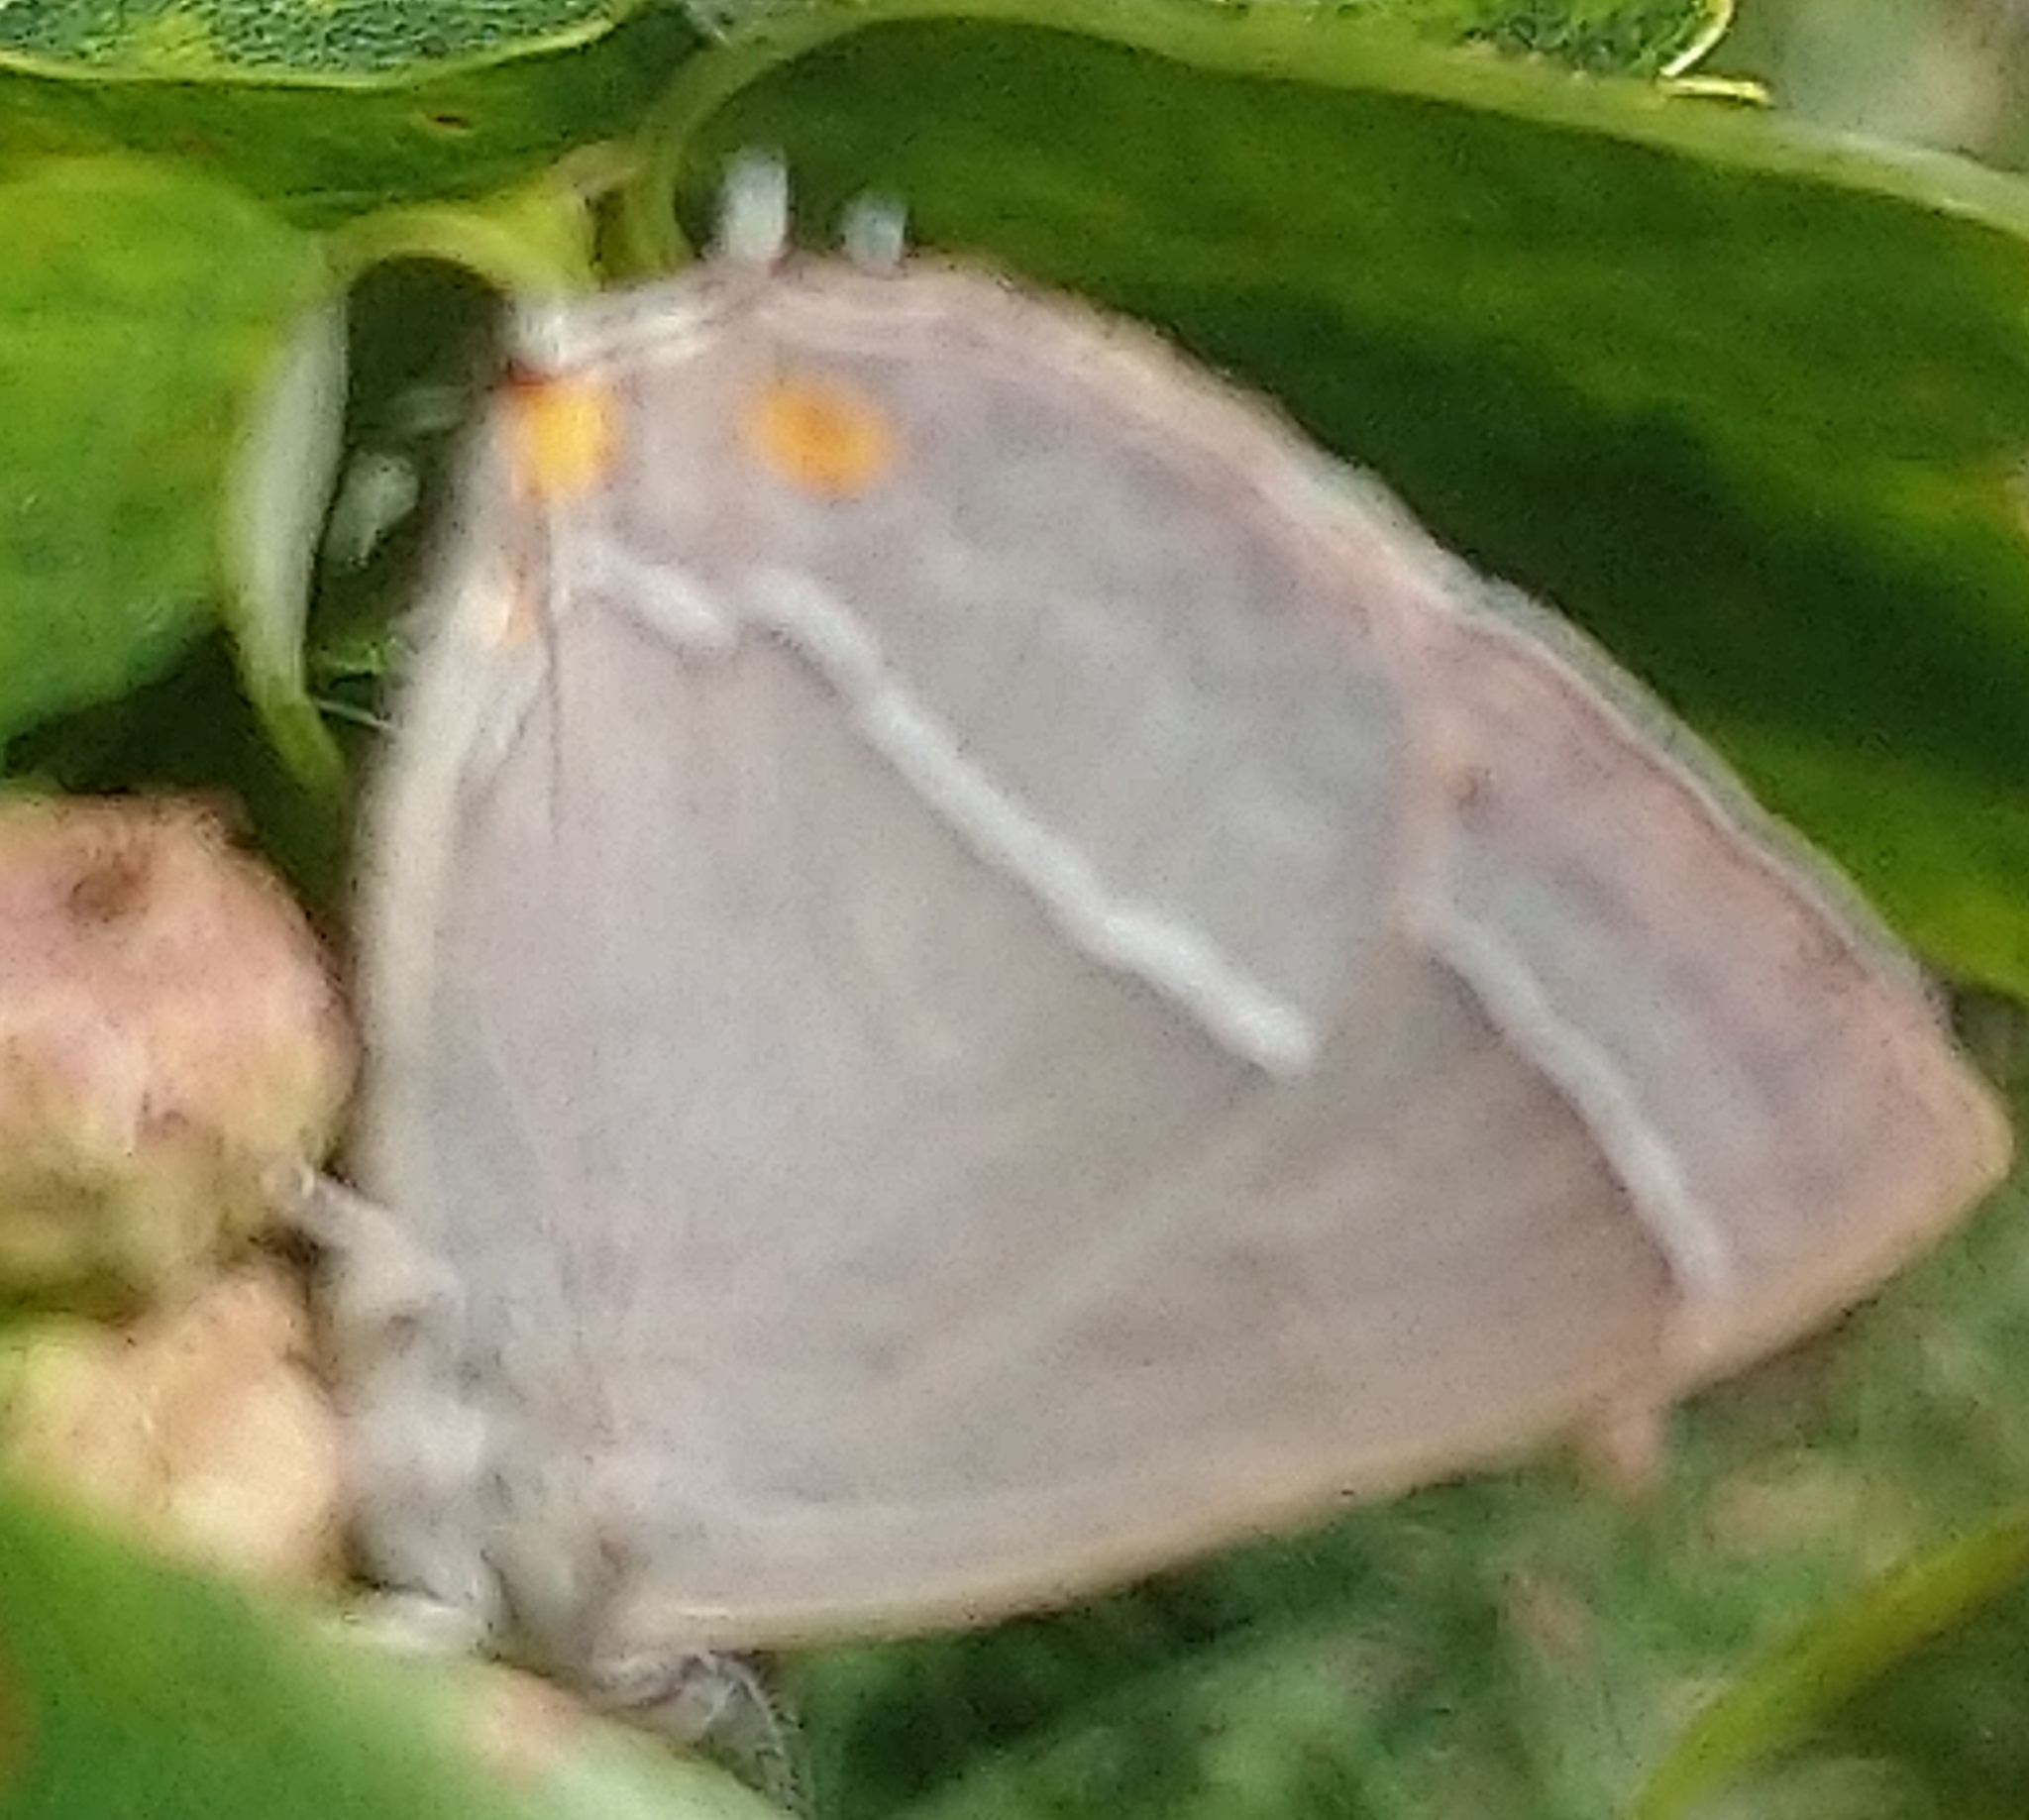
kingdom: Animalia
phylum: Arthropoda
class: Insecta
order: Lepidoptera
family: Lycaenidae
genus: Quercusia
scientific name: Quercusia quercus
